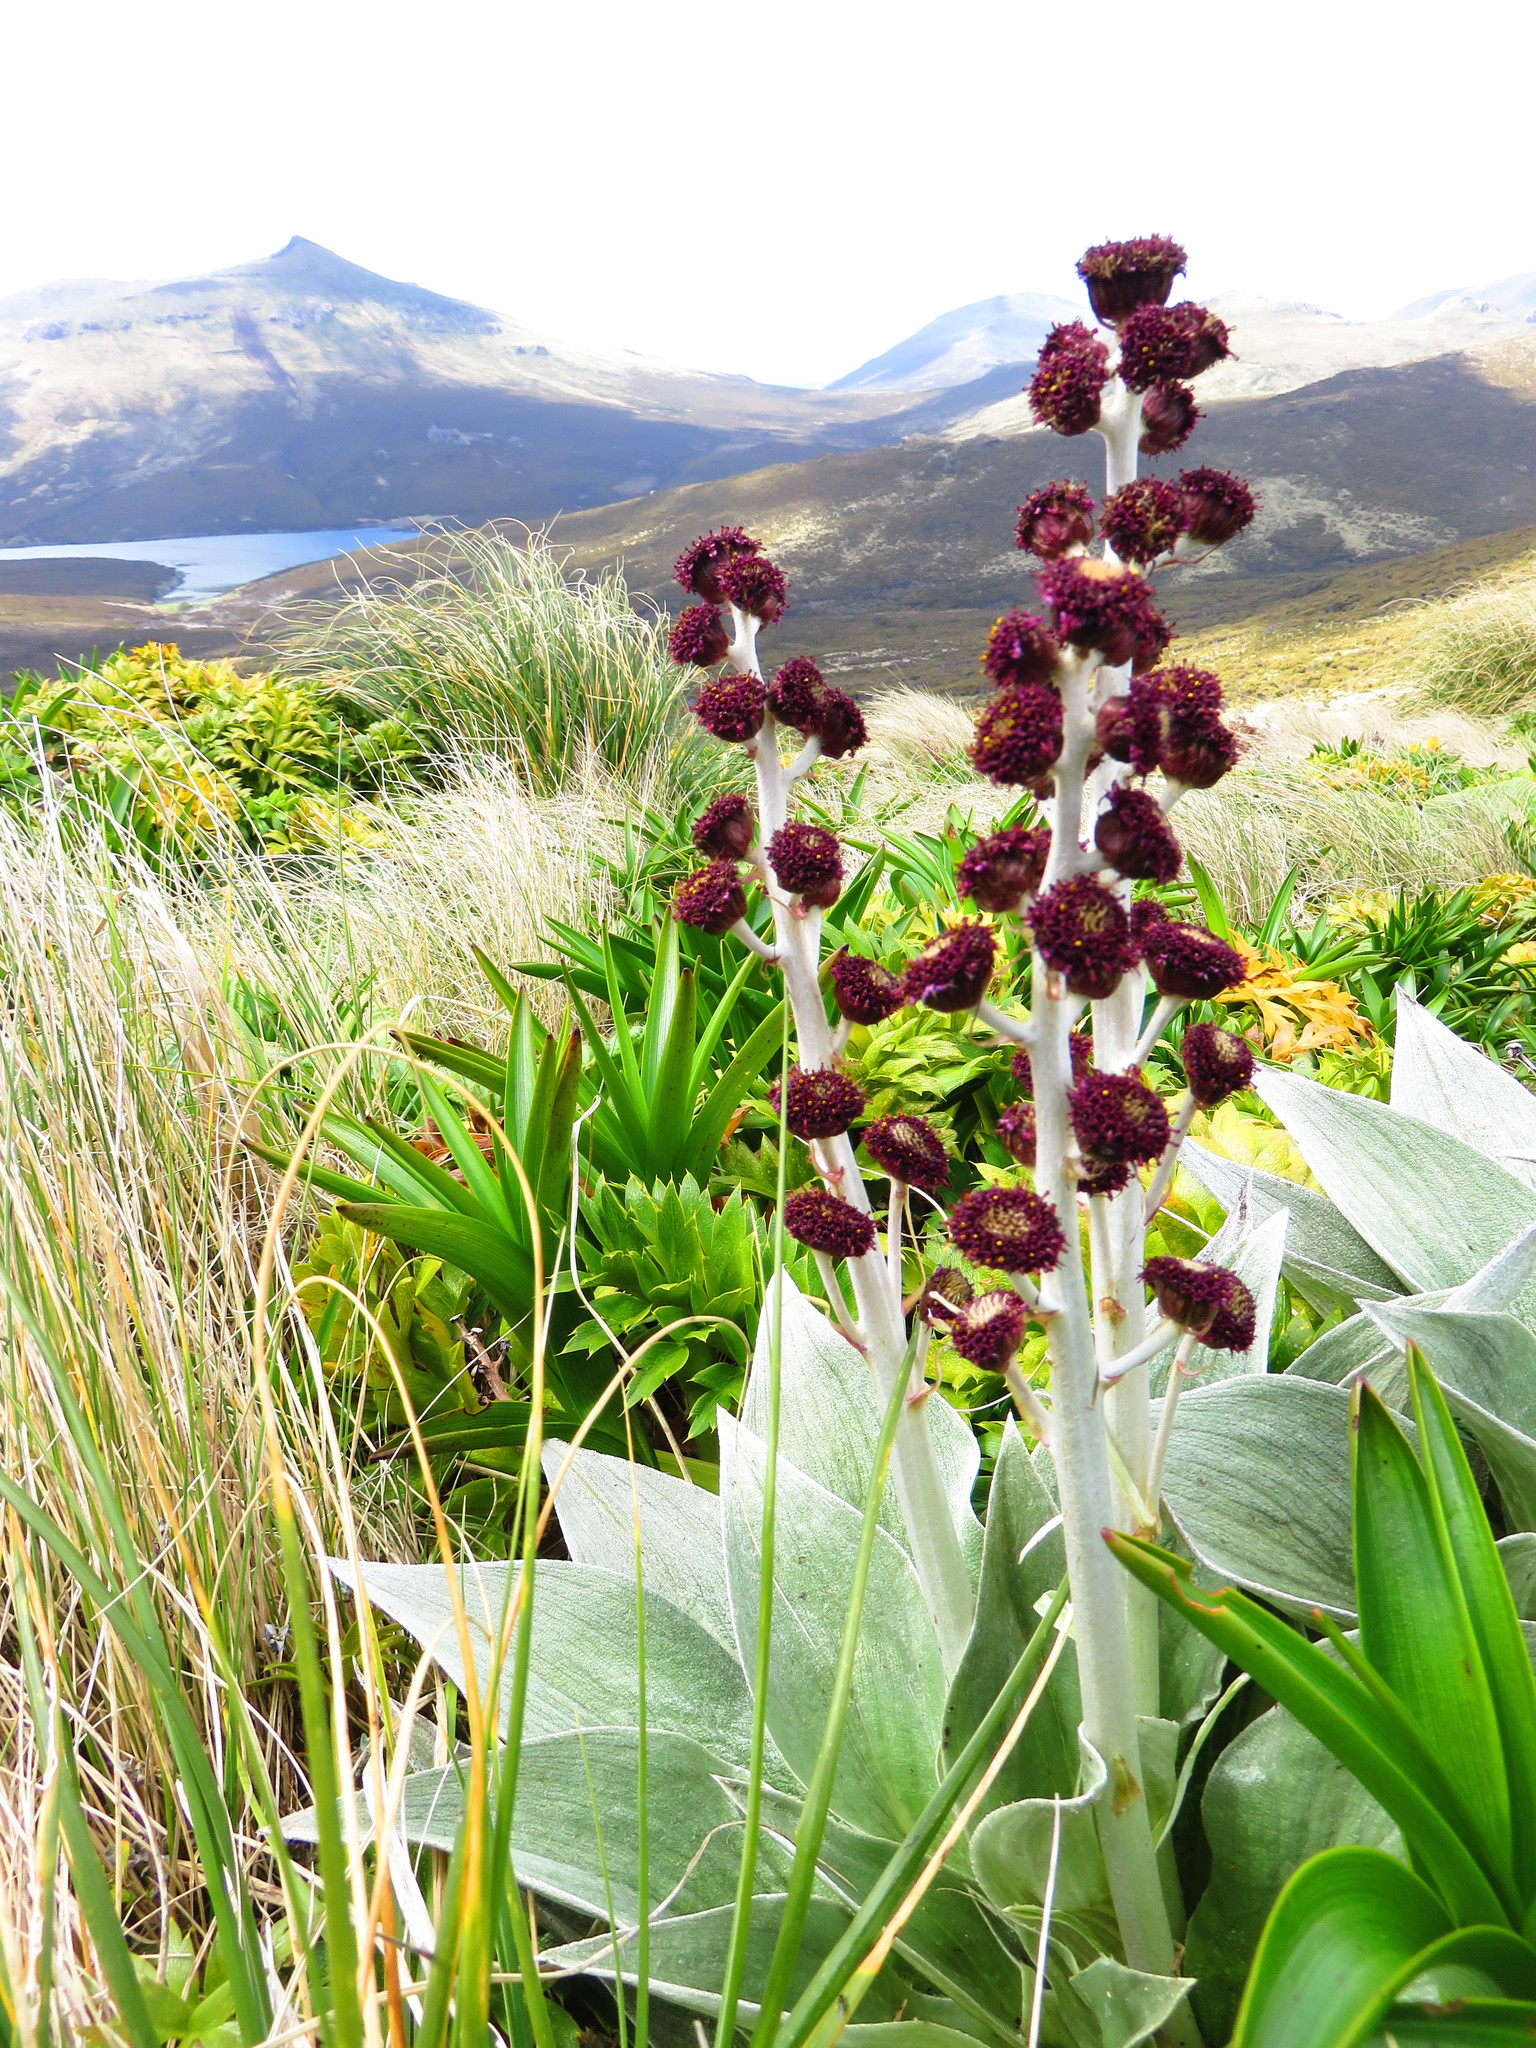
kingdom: Plantae
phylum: Tracheophyta
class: Magnoliopsida
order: Asterales
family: Asteraceae
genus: Pleurophyllum
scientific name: Pleurophyllum criniferum
